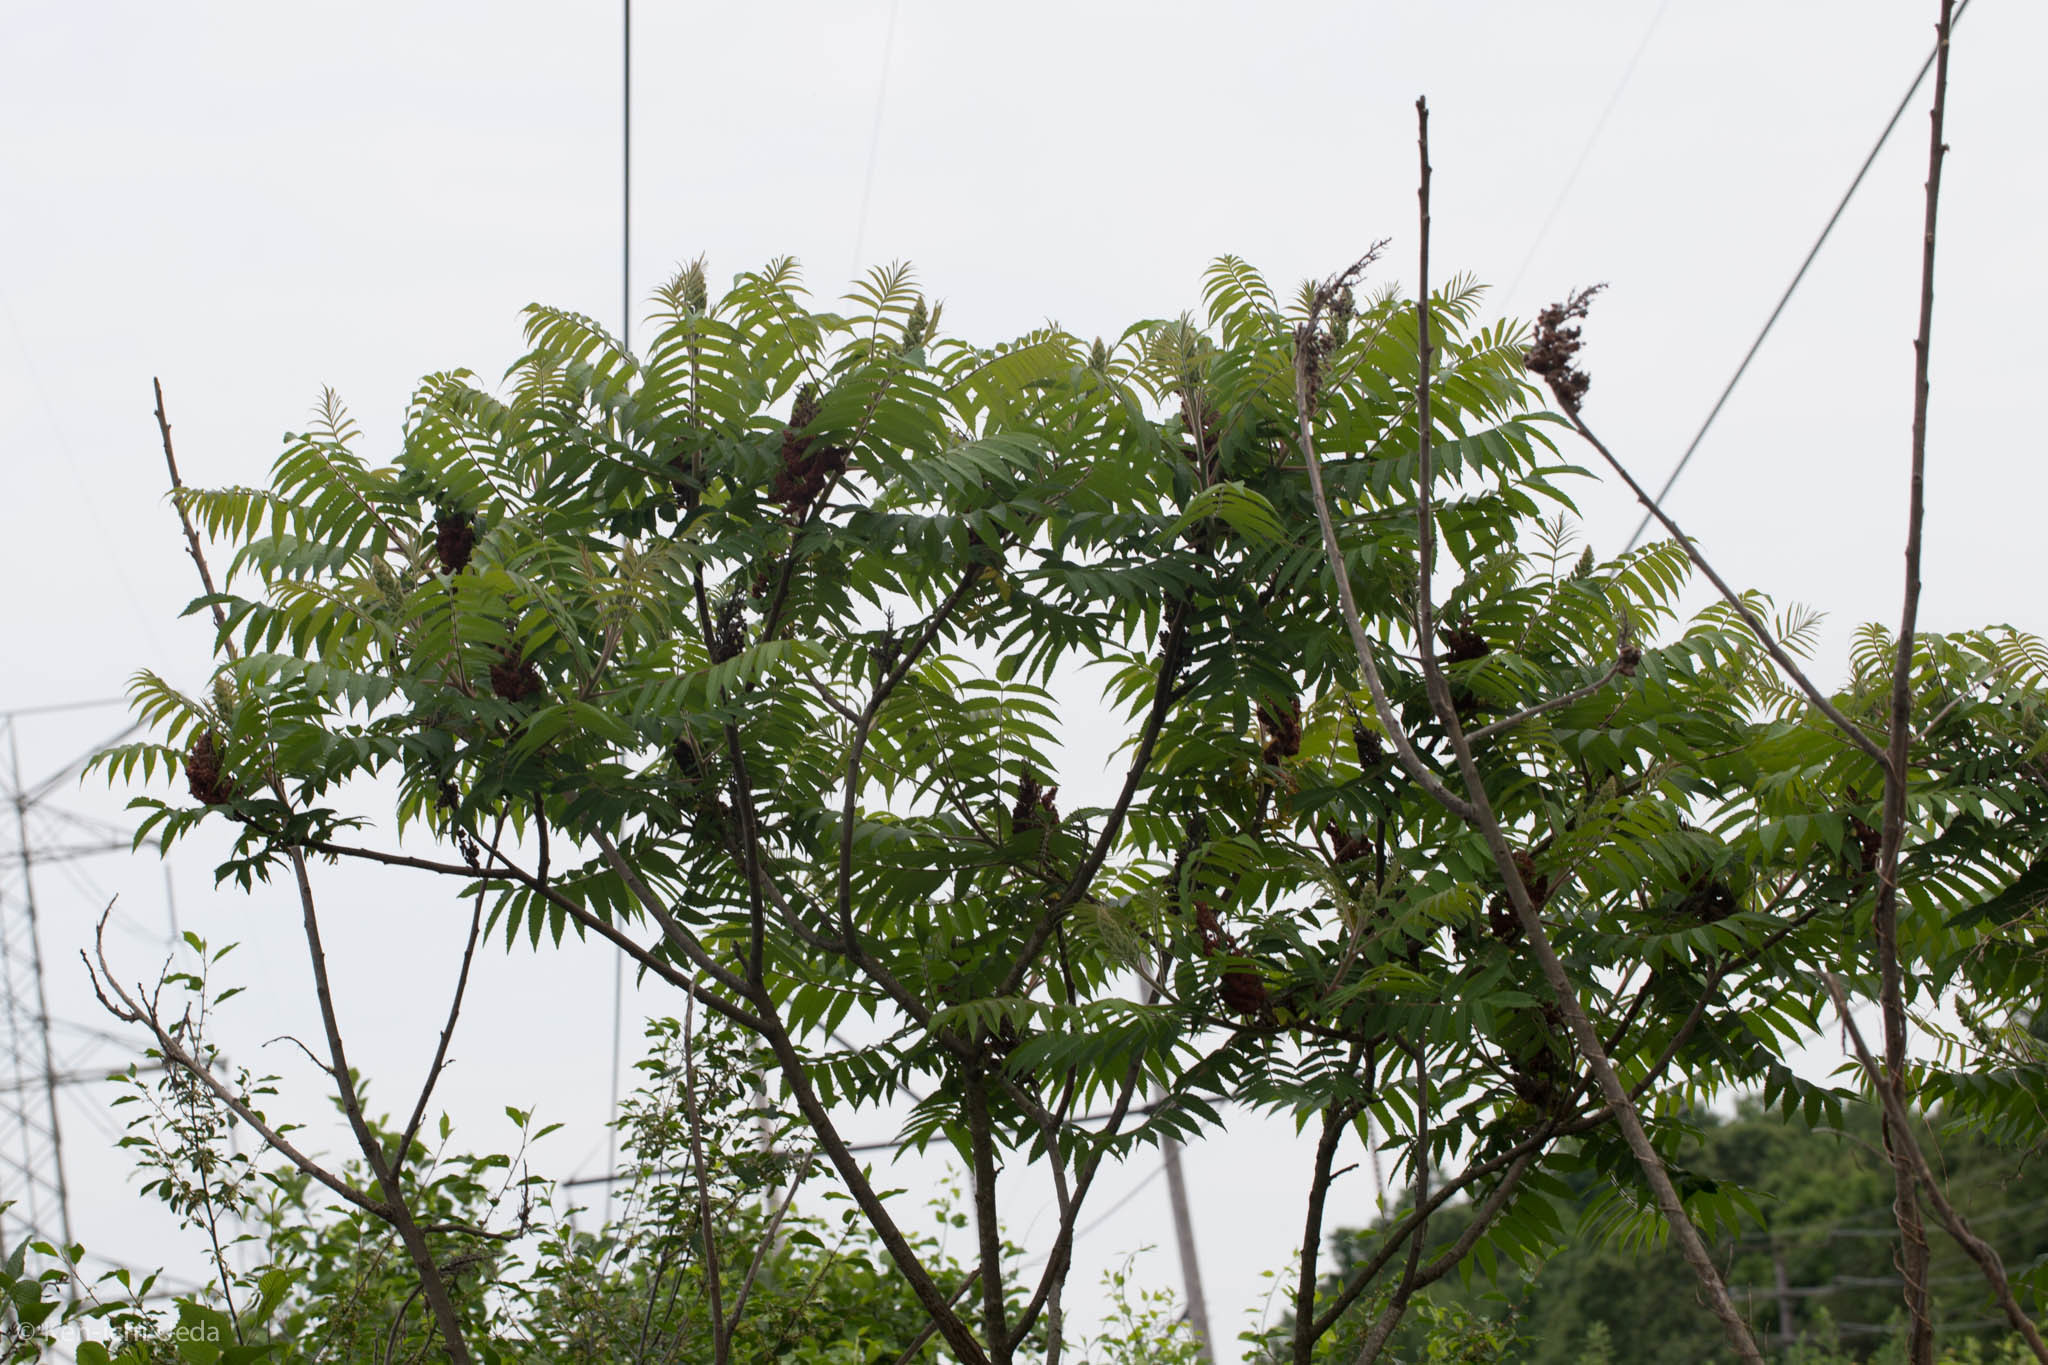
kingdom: Plantae
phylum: Tracheophyta
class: Magnoliopsida
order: Sapindales
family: Anacardiaceae
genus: Rhus
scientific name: Rhus typhina
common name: Staghorn sumac
